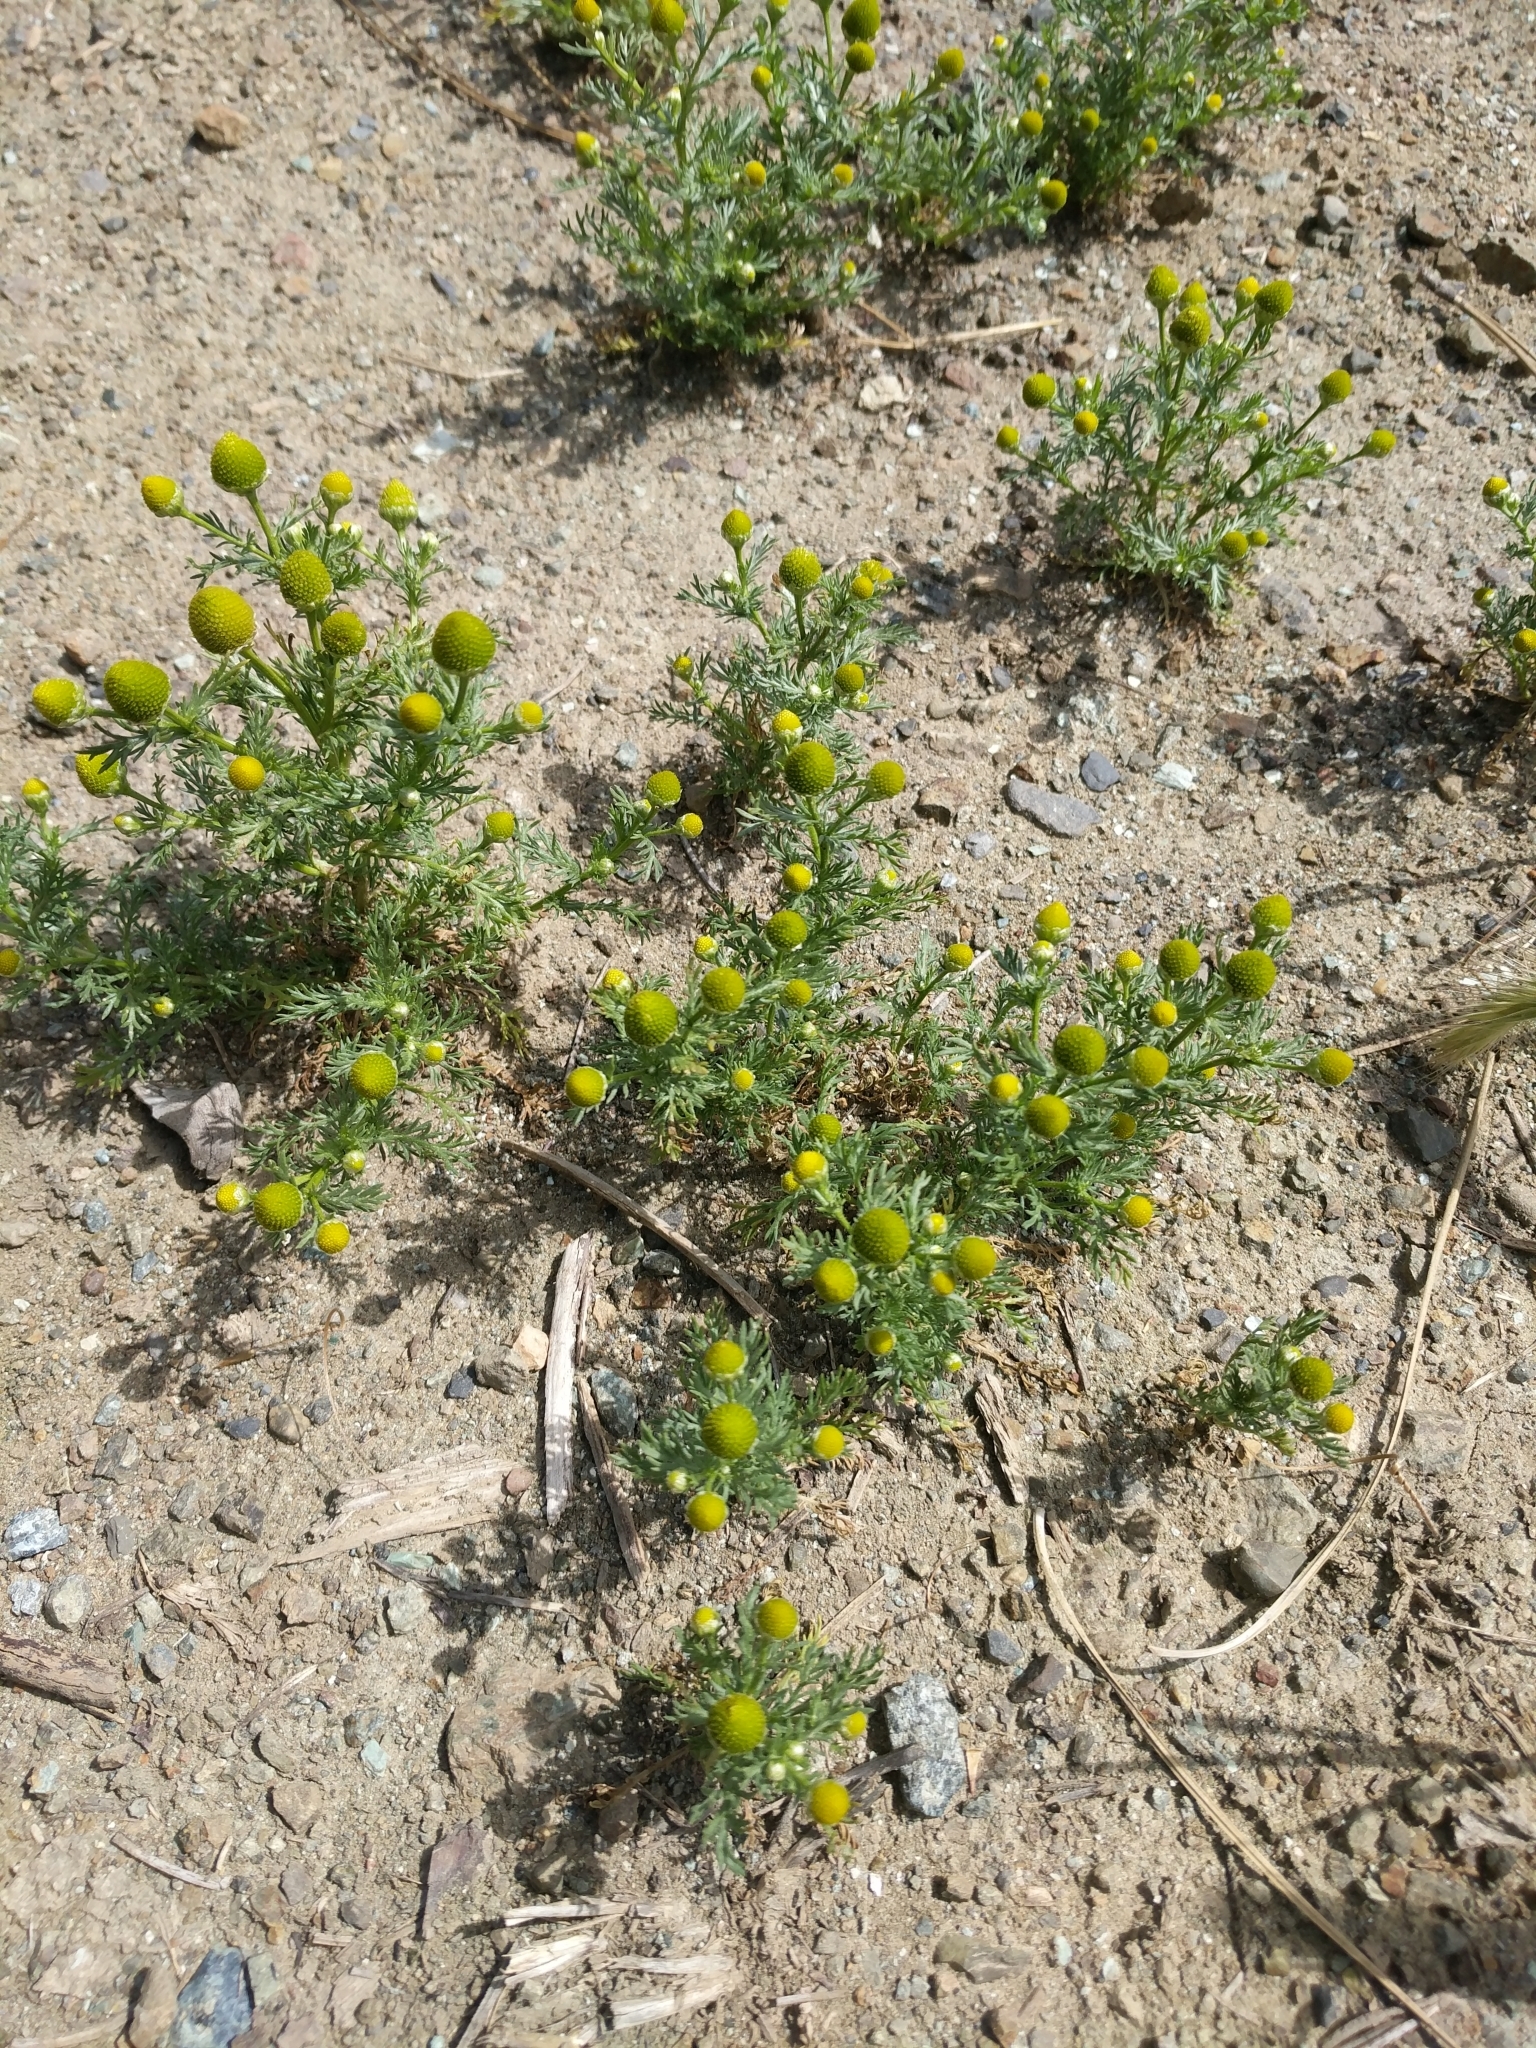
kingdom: Plantae
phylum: Tracheophyta
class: Magnoliopsida
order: Asterales
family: Asteraceae
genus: Matricaria
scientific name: Matricaria discoidea
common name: Disc mayweed
